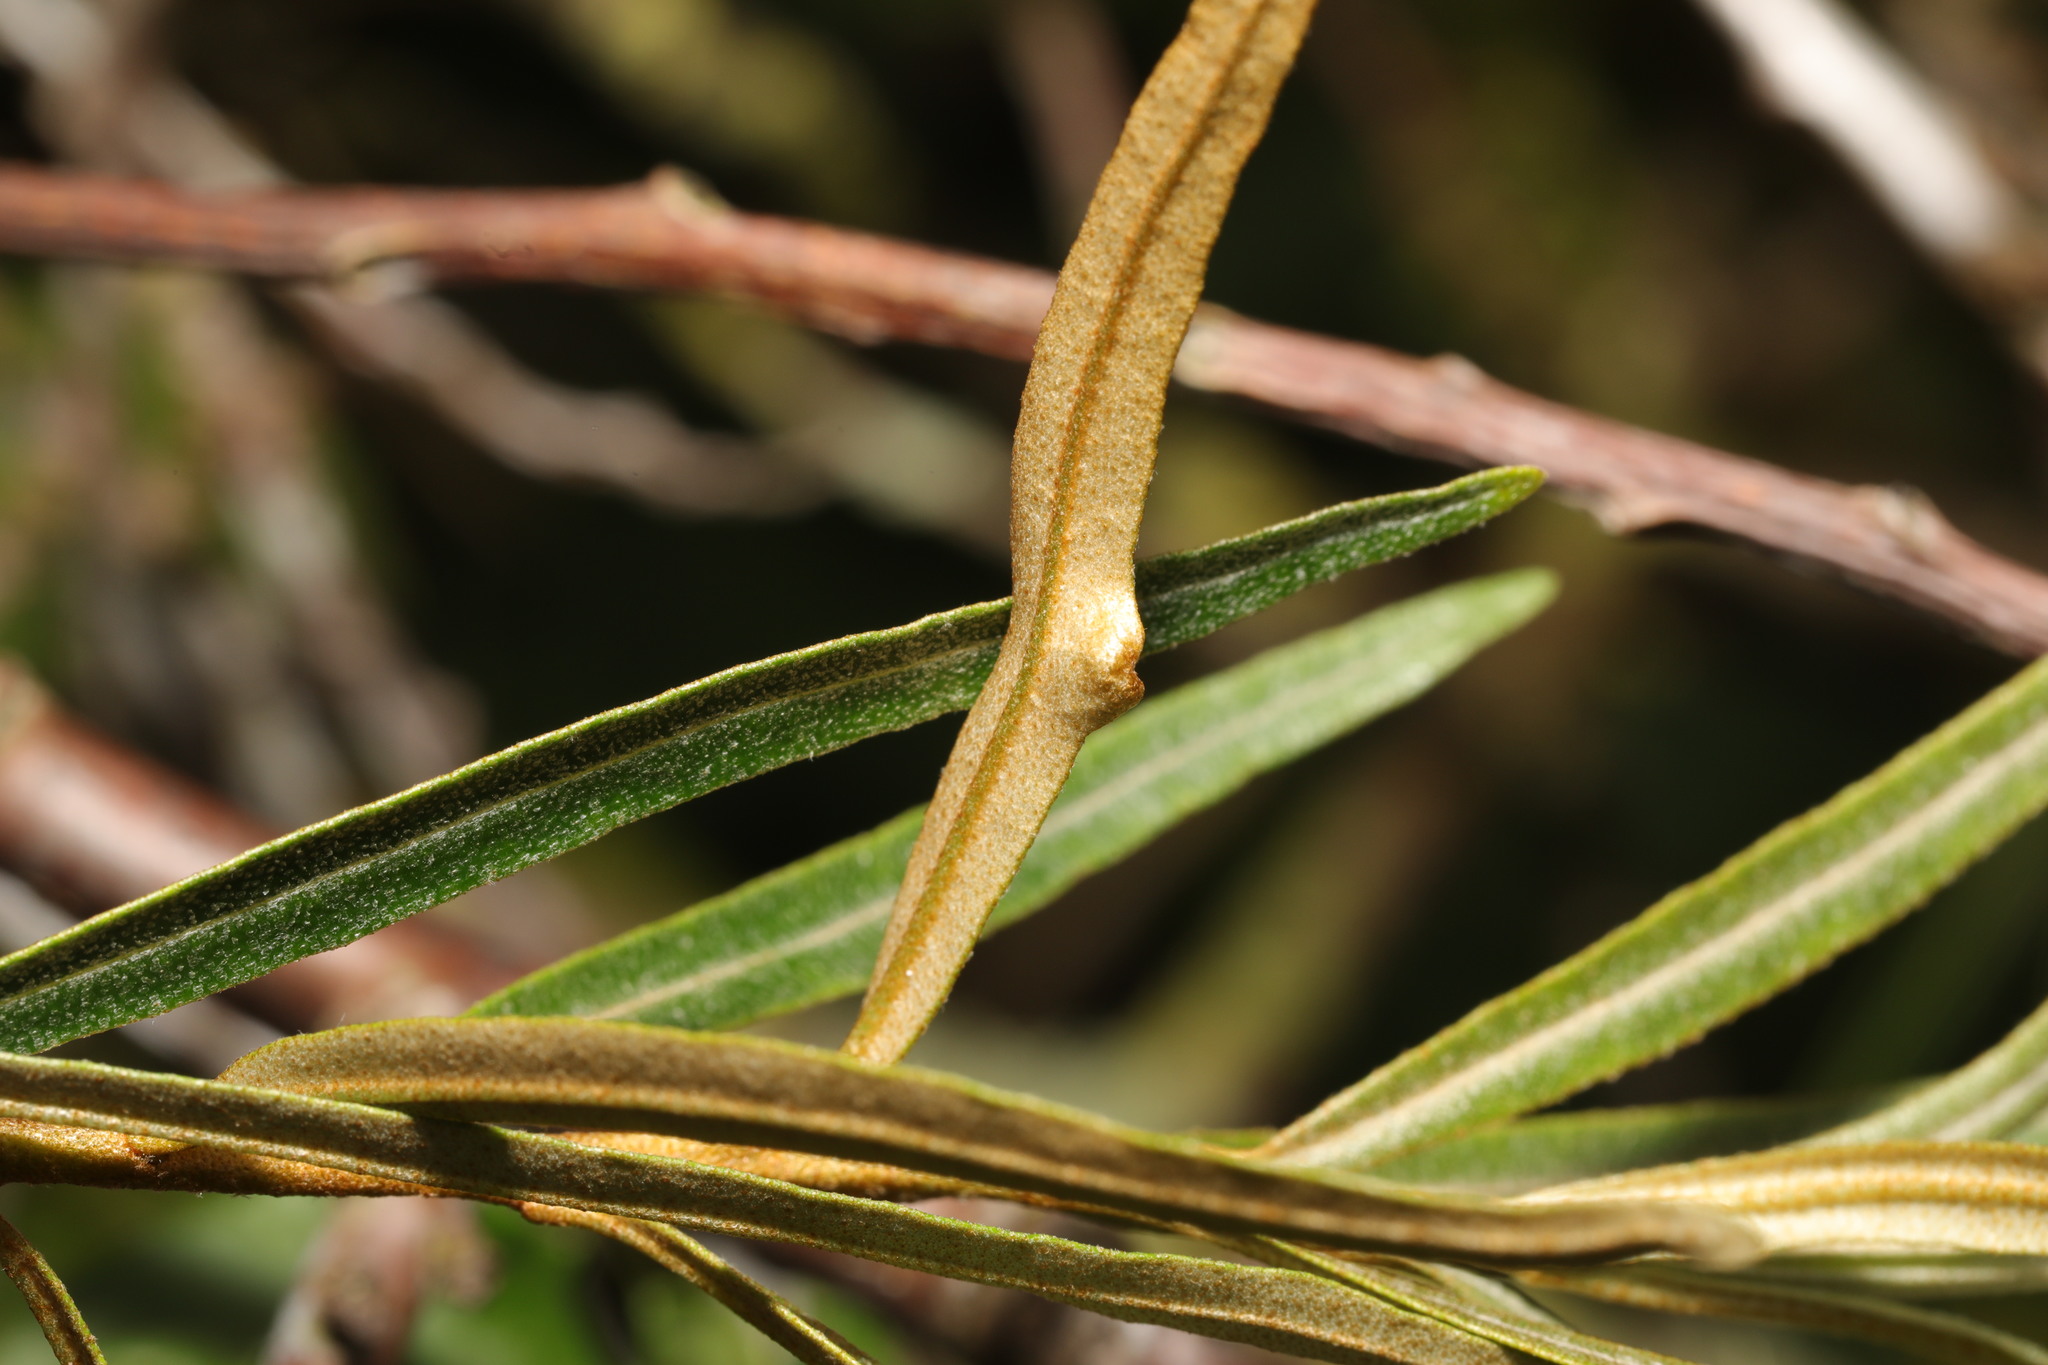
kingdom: Animalia
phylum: Arthropoda
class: Arachnida
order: Trombidiformes
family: Eriophyidae
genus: Aceria
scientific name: Aceria hippophaena
